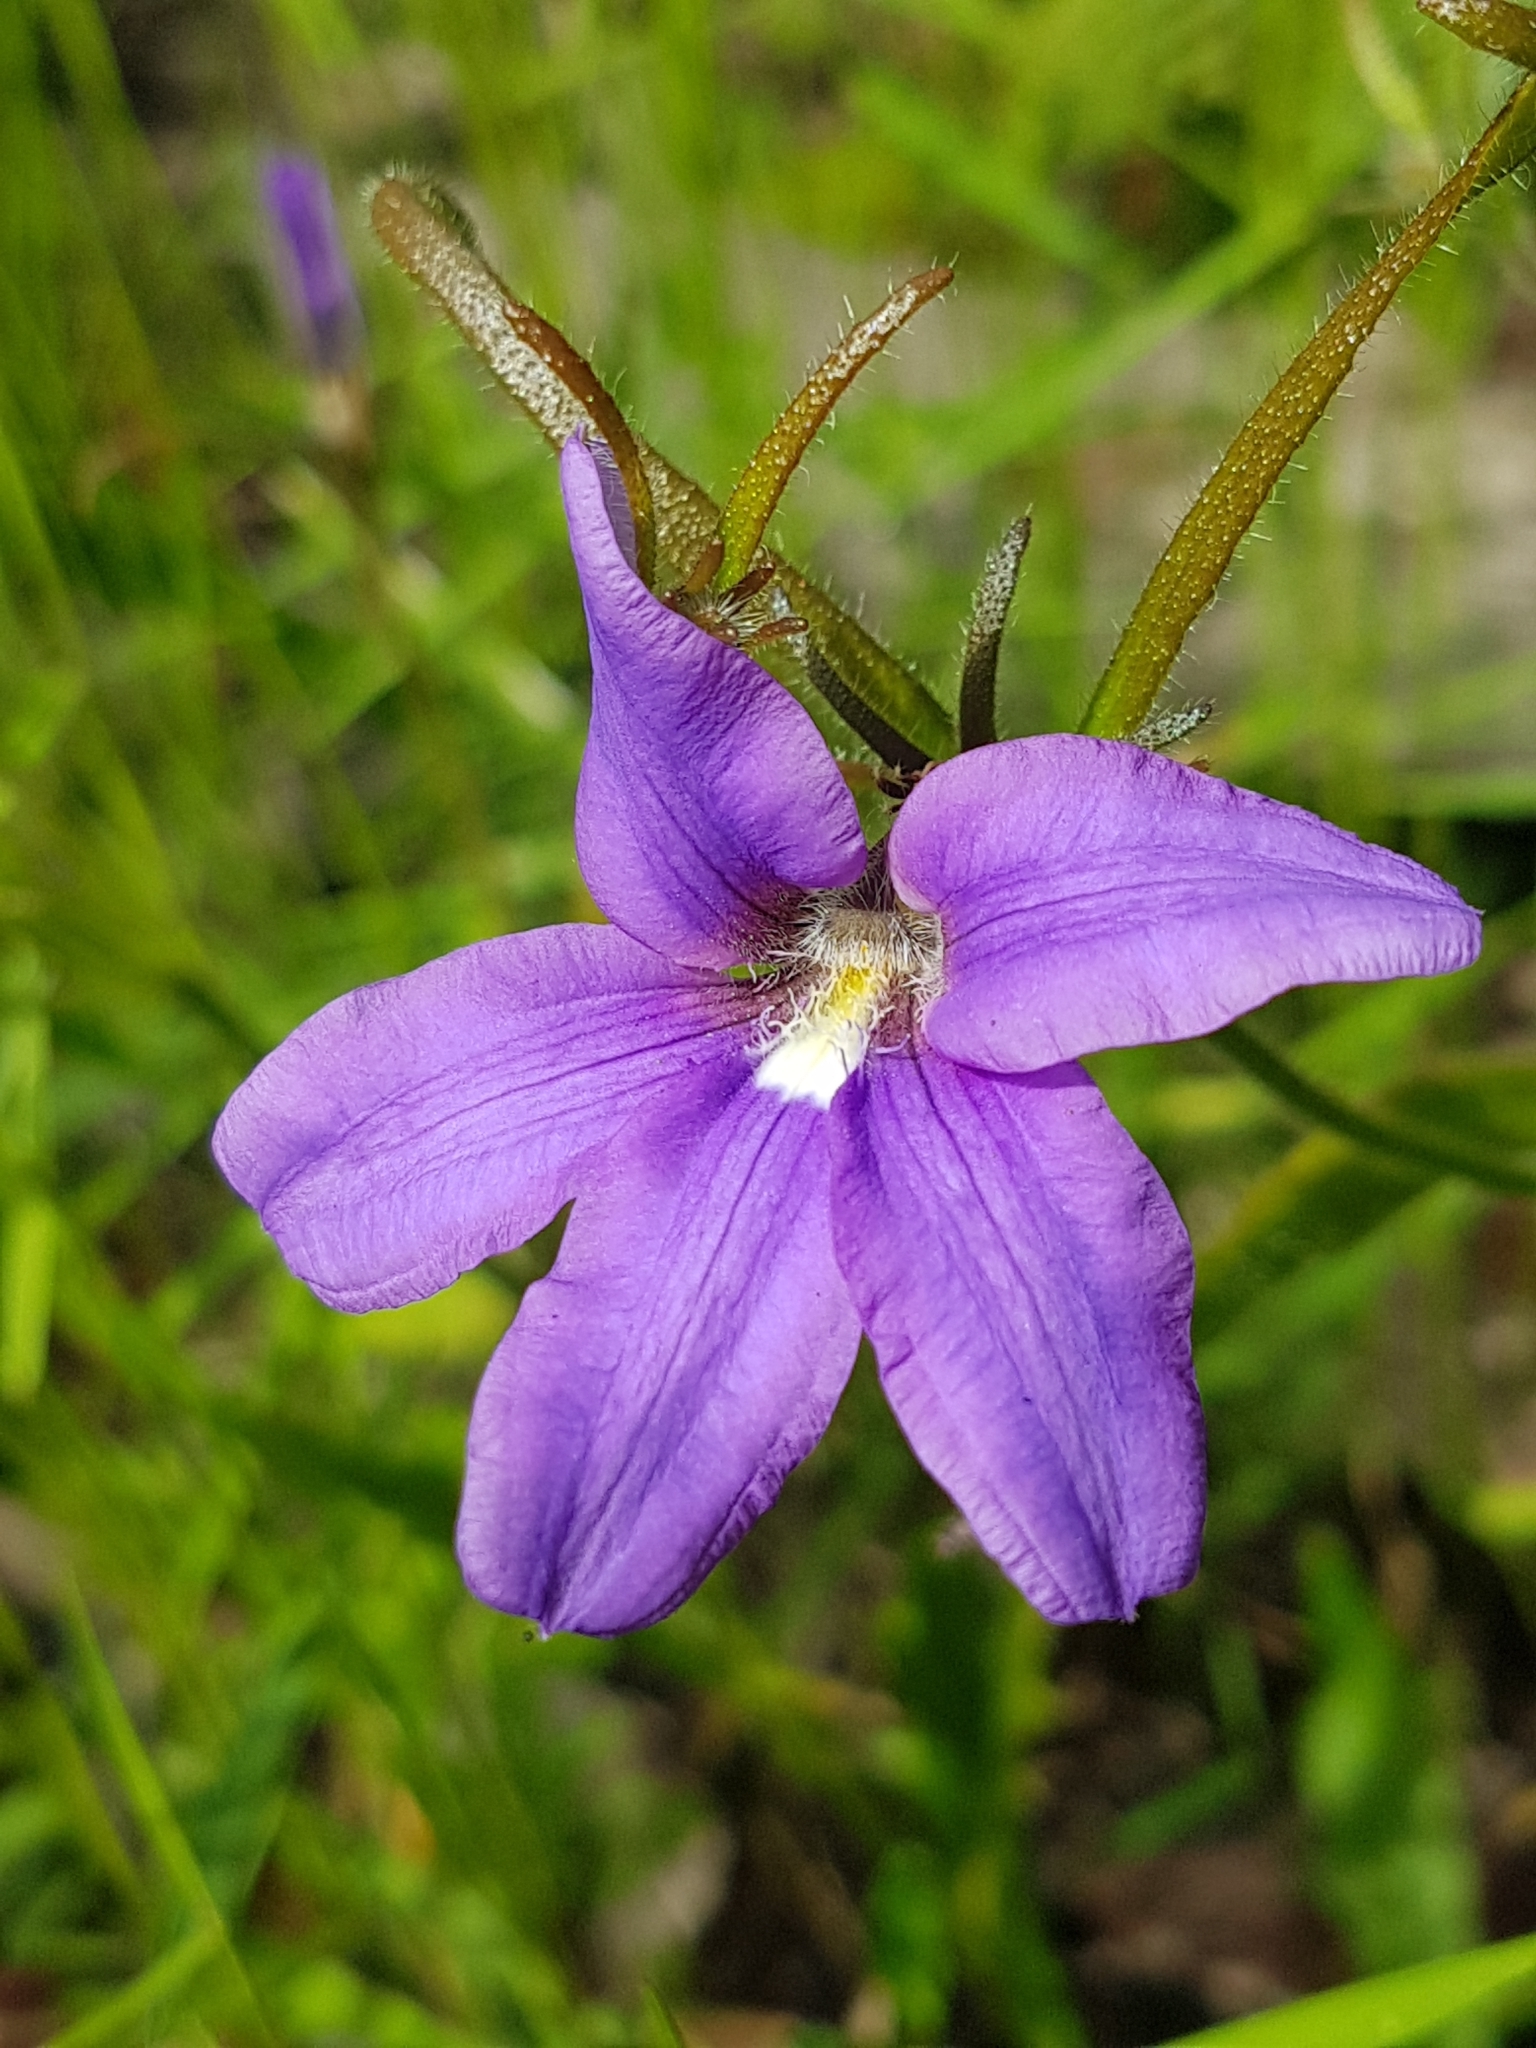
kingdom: Plantae
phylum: Tracheophyta
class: Magnoliopsida
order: Asterales
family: Goodeniaceae
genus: Scaevola
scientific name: Scaevola ramosissima
